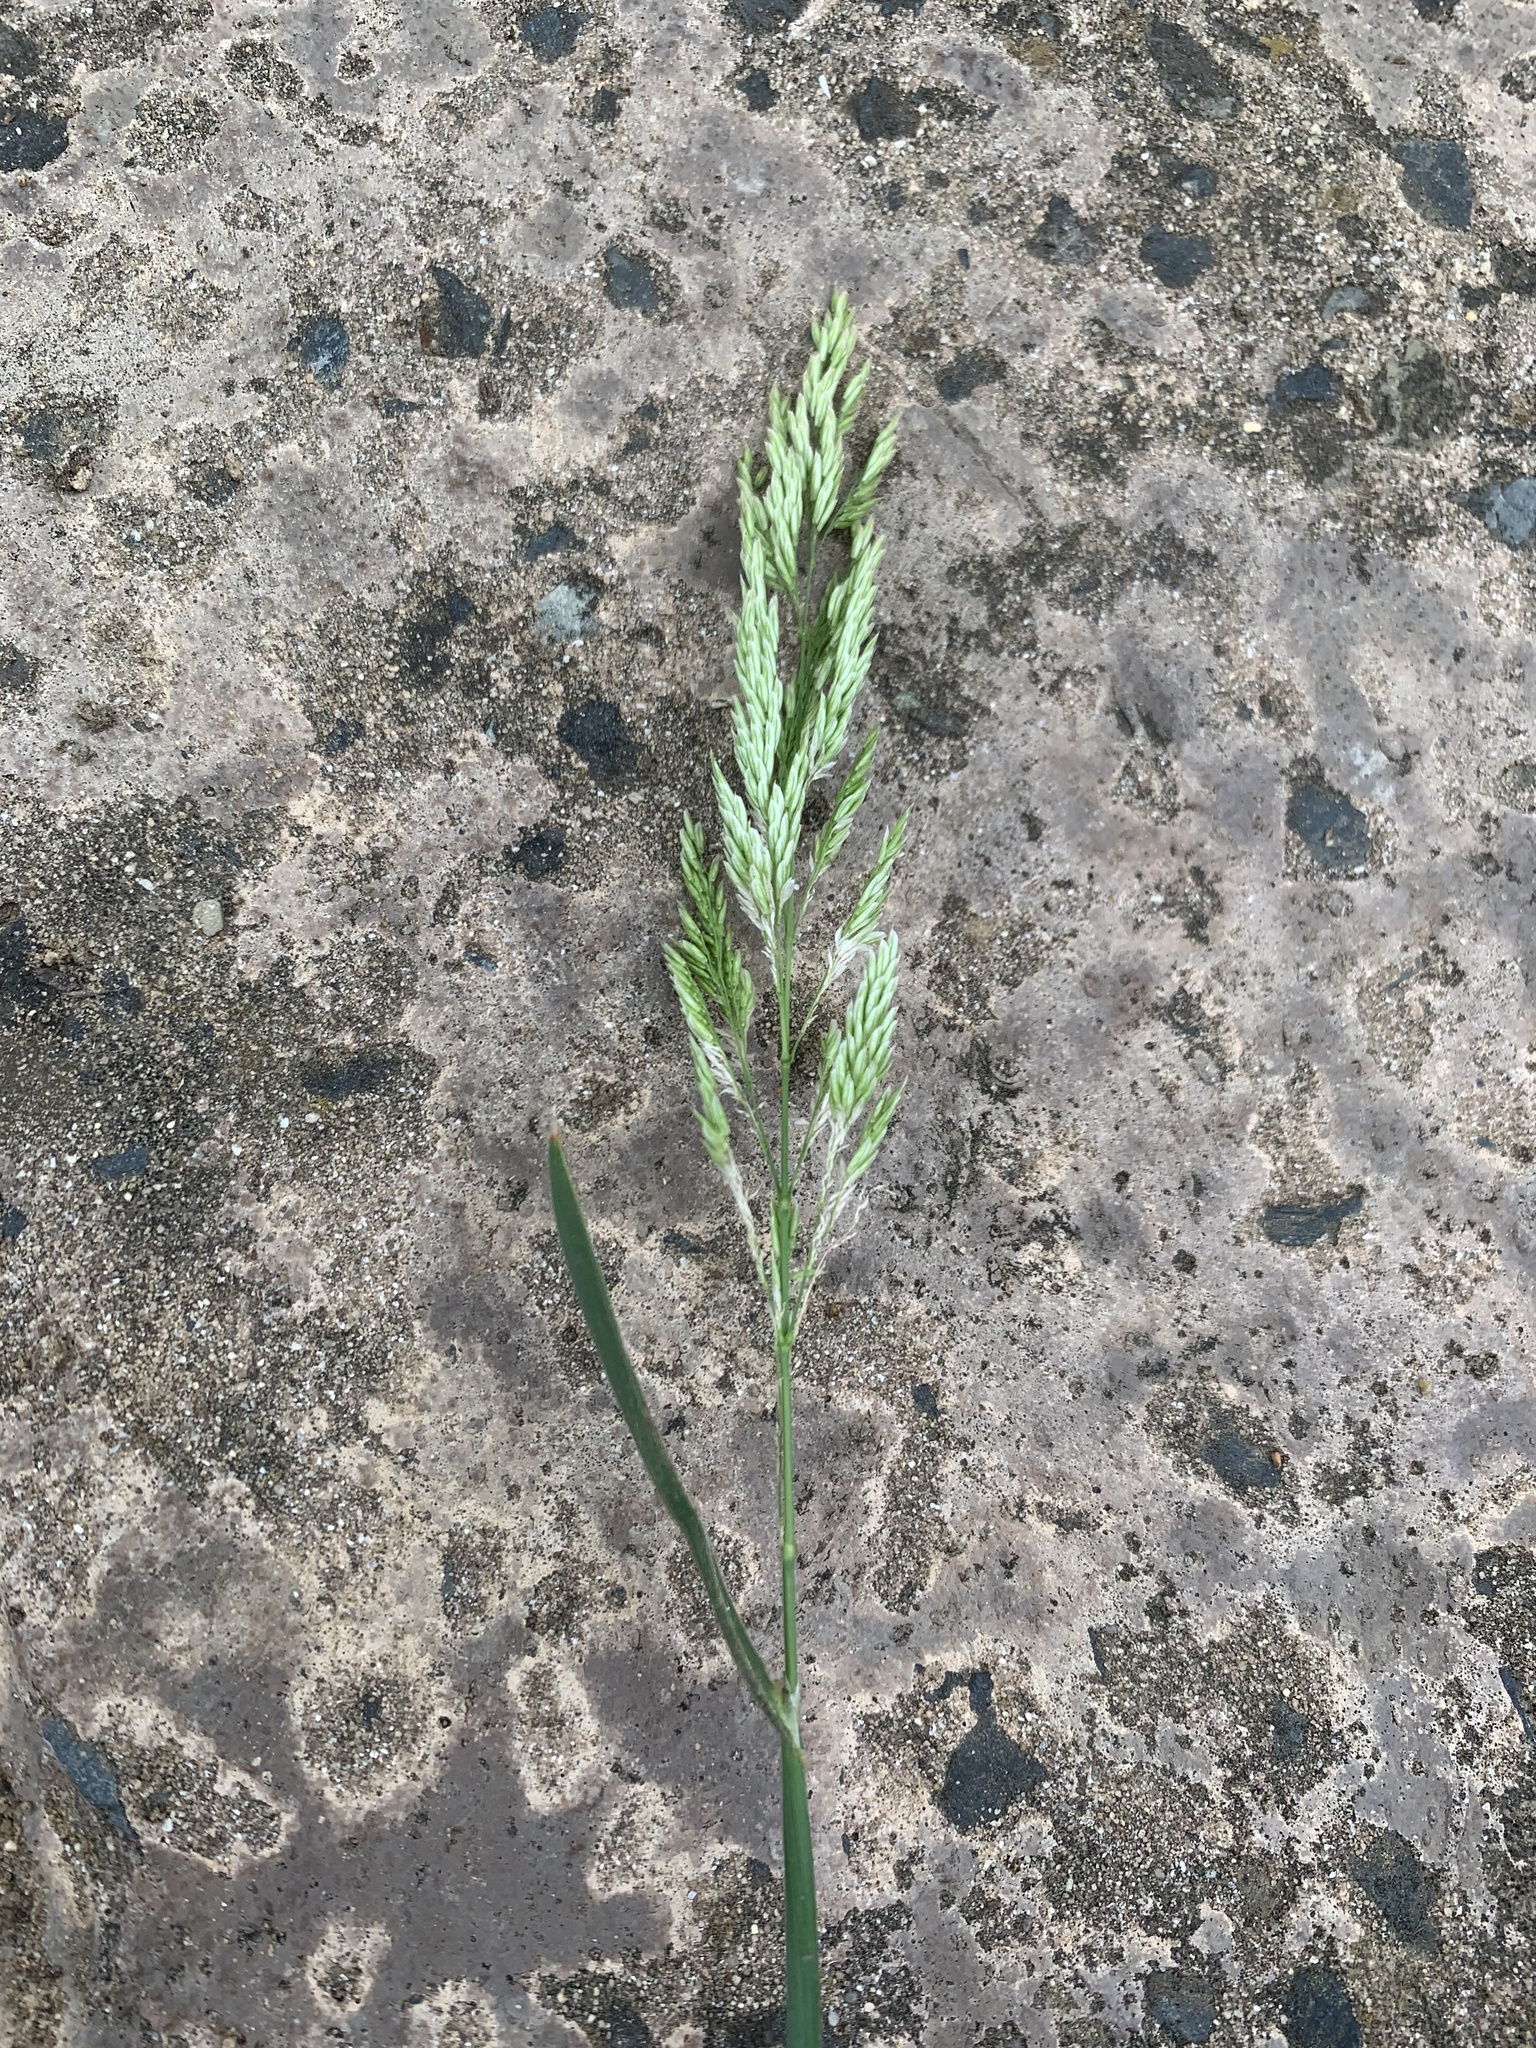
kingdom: Plantae
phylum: Tracheophyta
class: Liliopsida
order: Poales
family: Poaceae
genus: Holcus
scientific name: Holcus lanatus
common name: Yorkshire-fog
